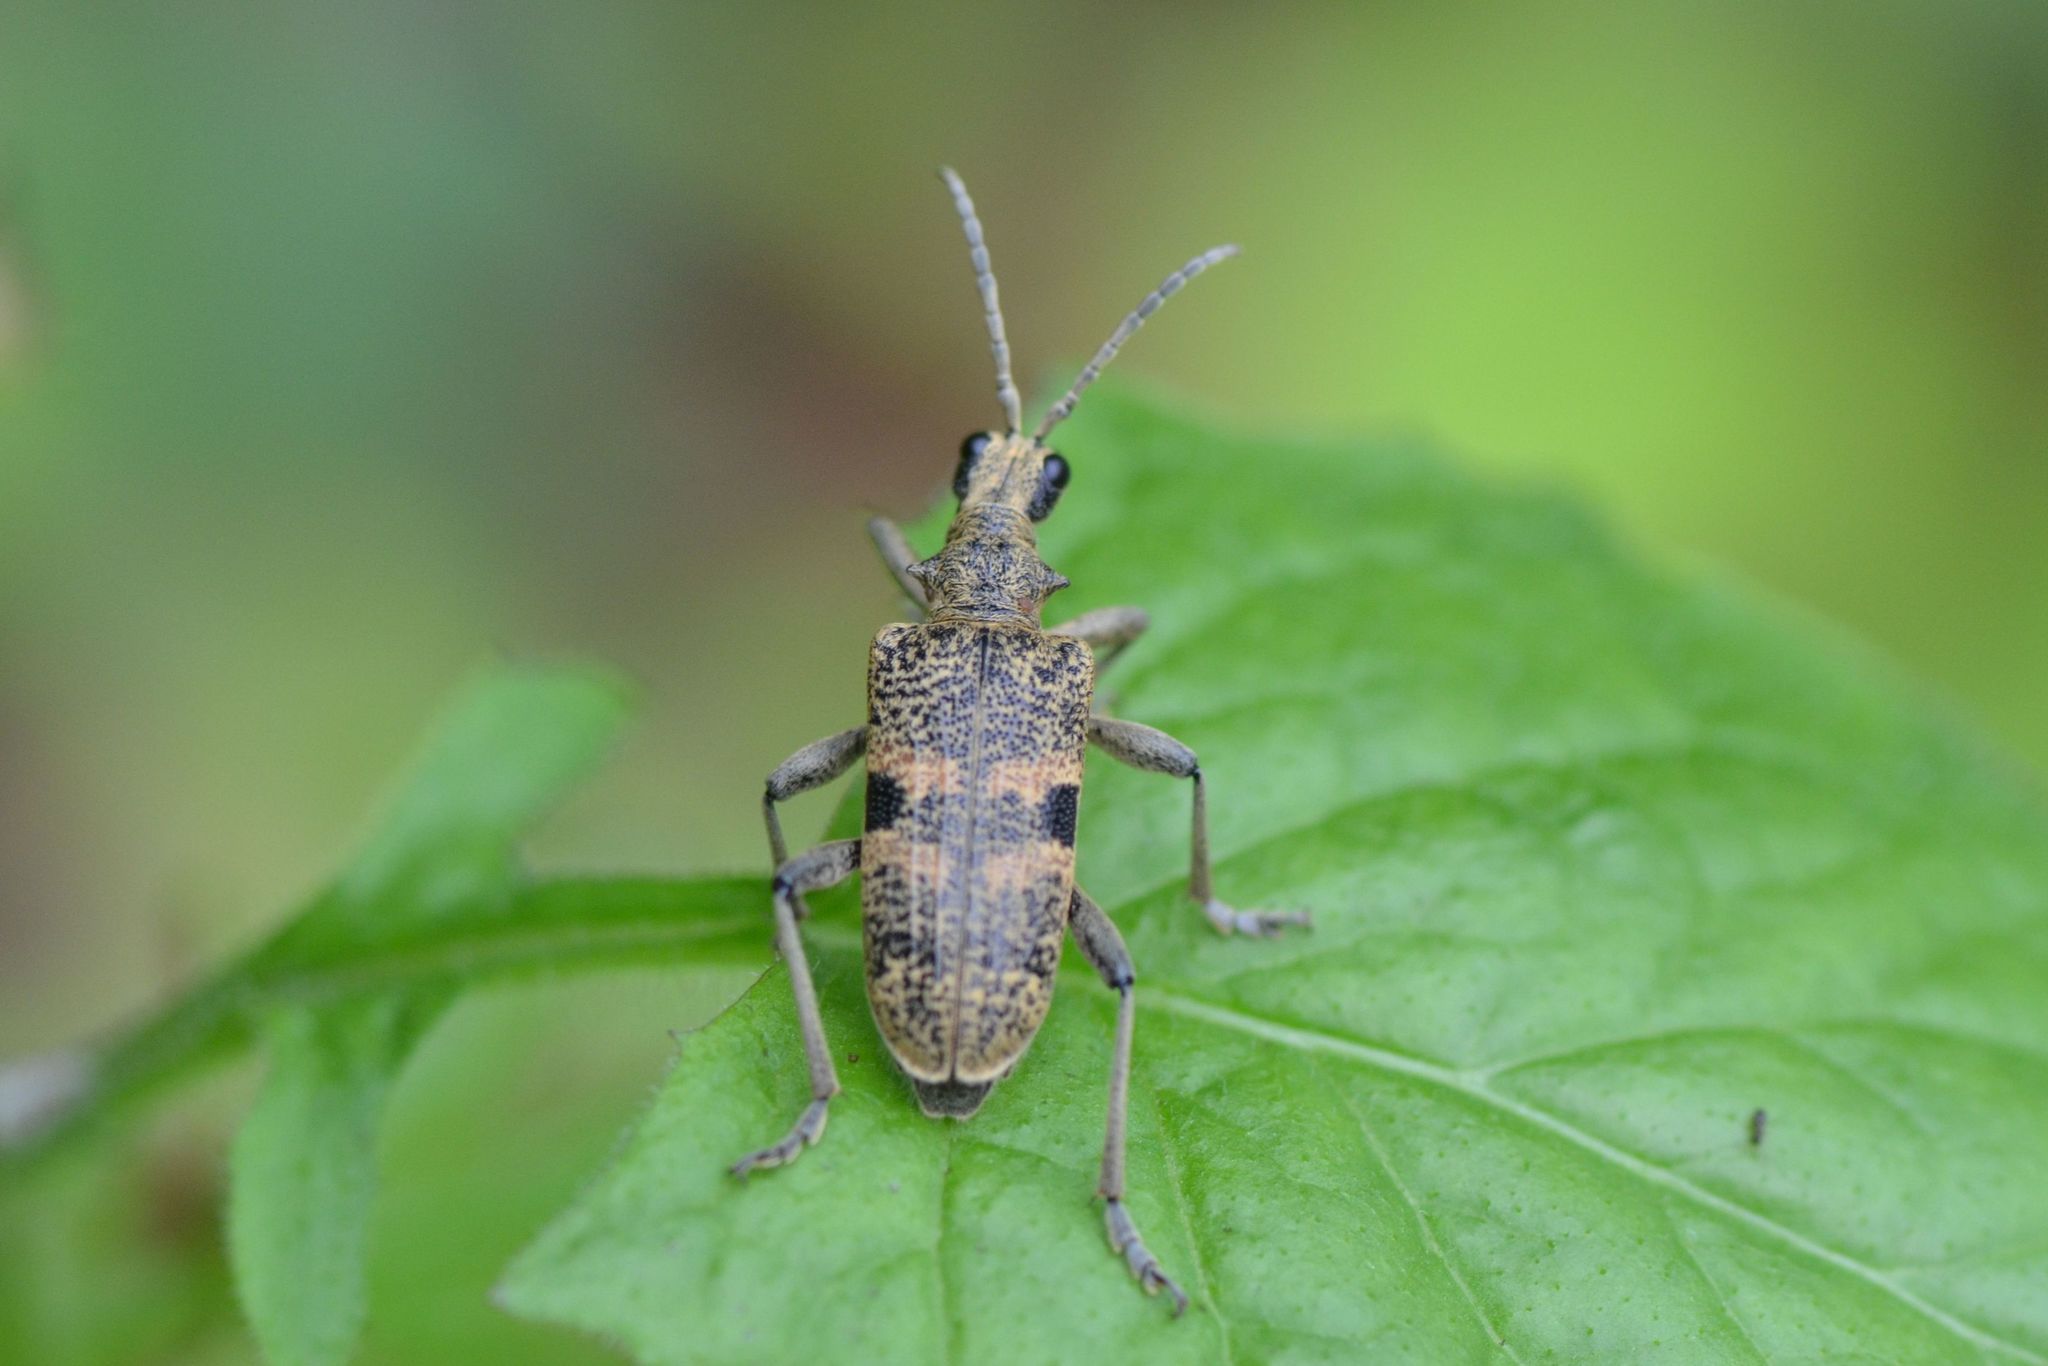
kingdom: Animalia
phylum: Arthropoda
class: Insecta
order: Coleoptera
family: Cerambycidae
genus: Rhagium
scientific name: Rhagium mordax
